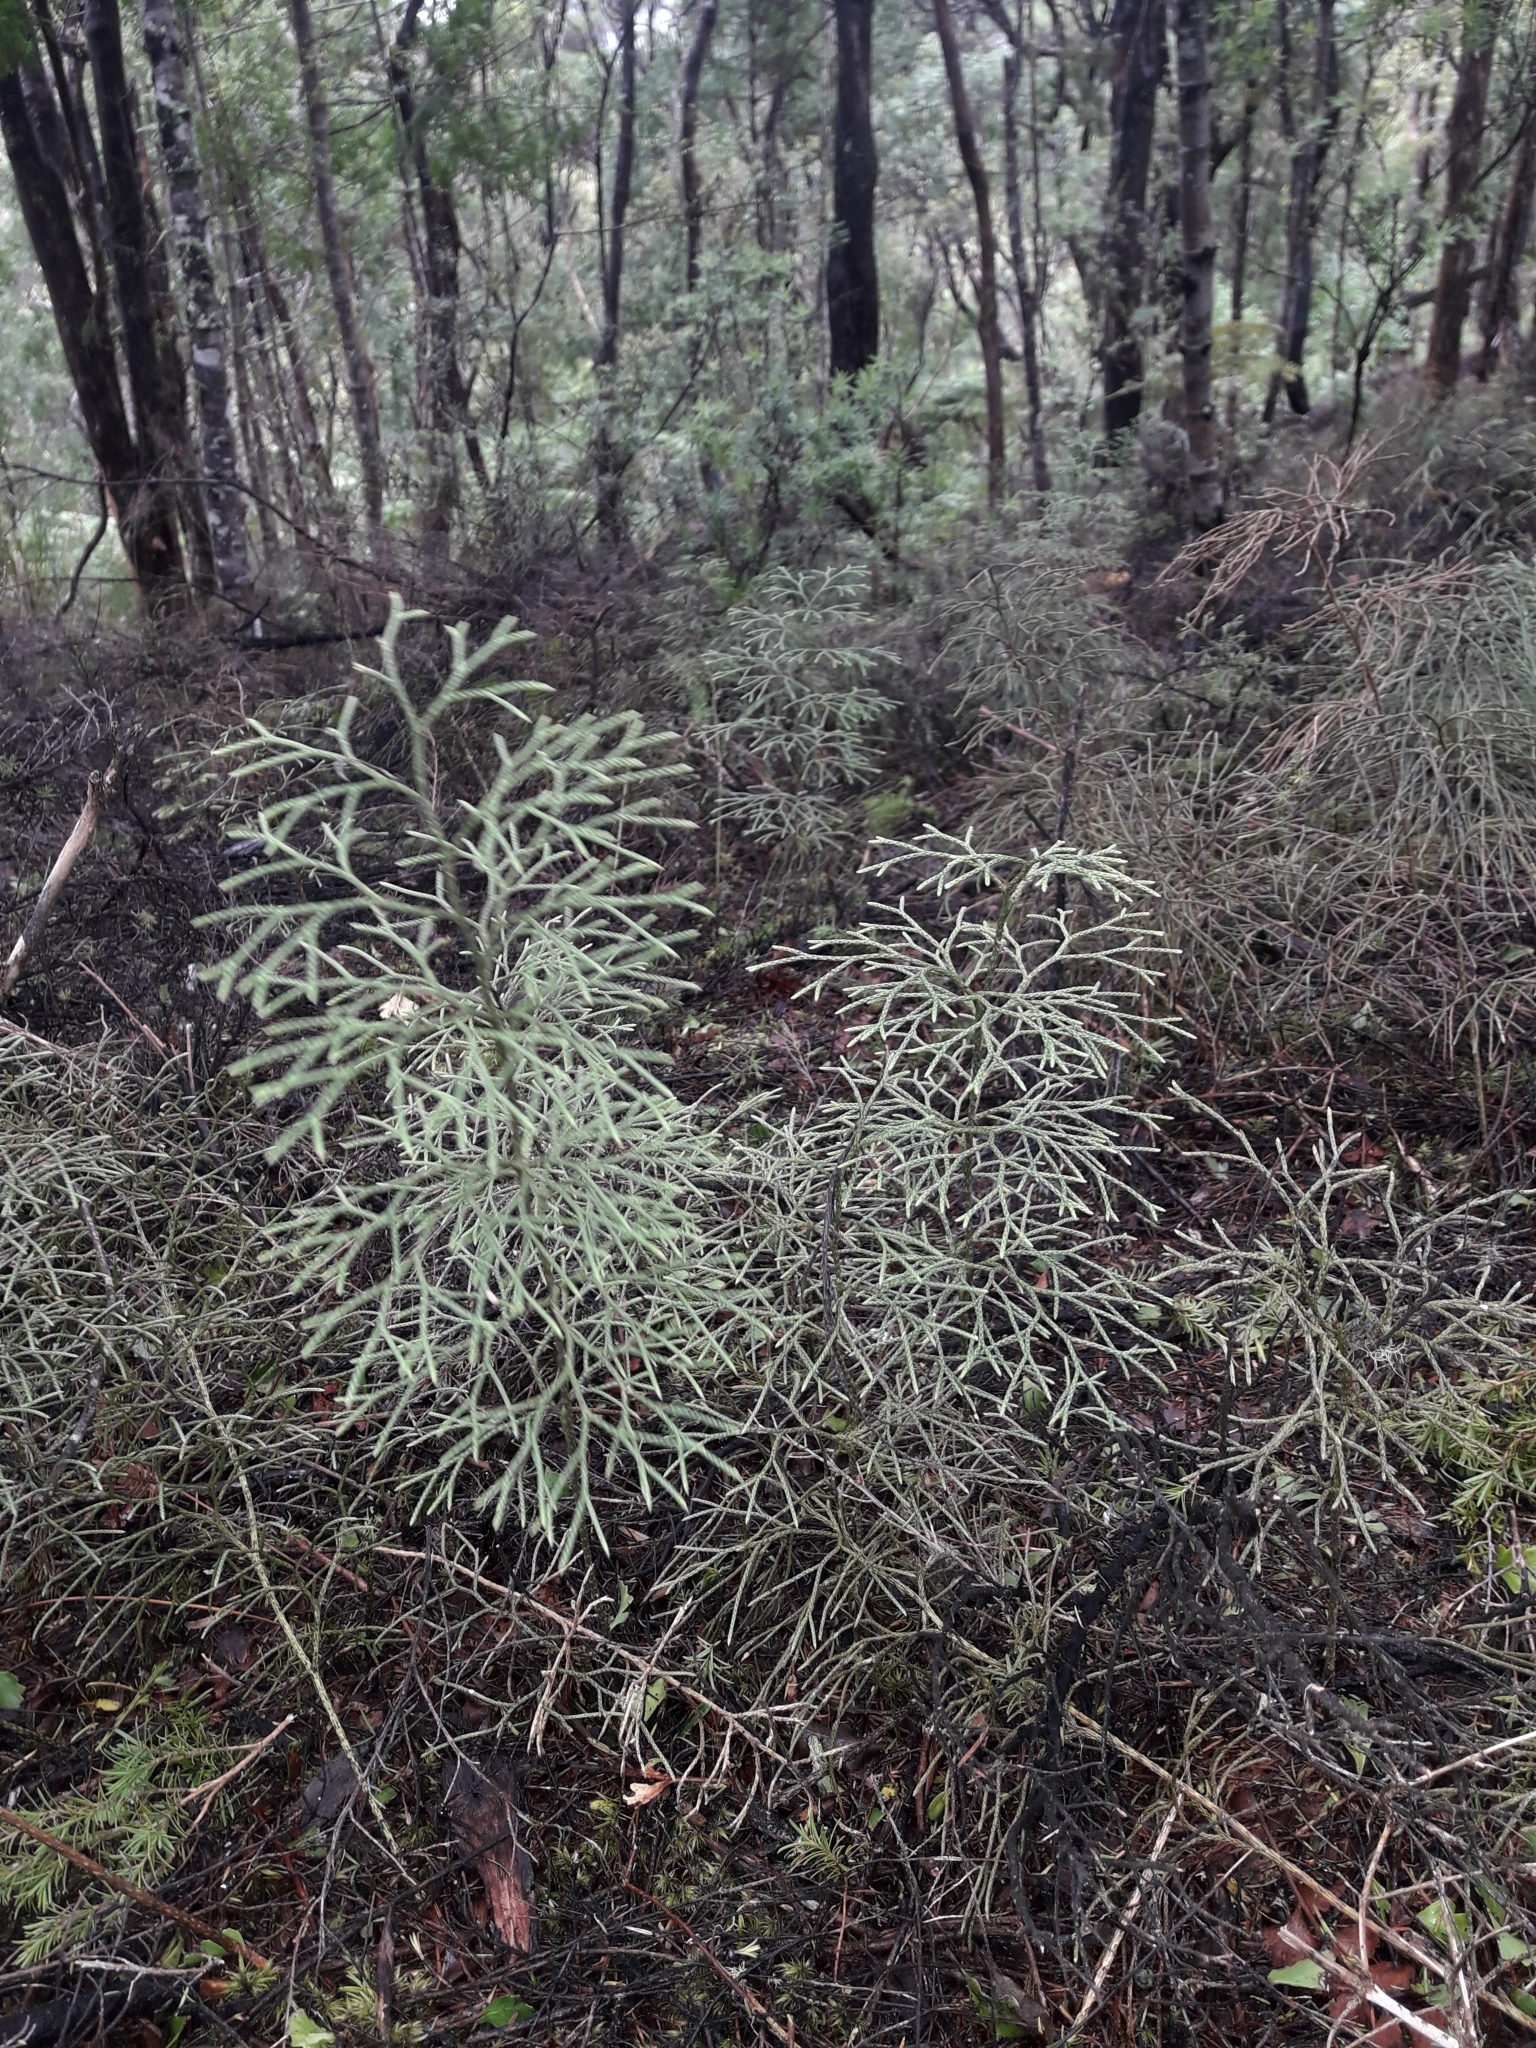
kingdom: Plantae
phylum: Tracheophyta
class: Lycopodiopsida
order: Lycopodiales
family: Lycopodiaceae
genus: Pseudolycopodium
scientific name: Pseudolycopodium densum
